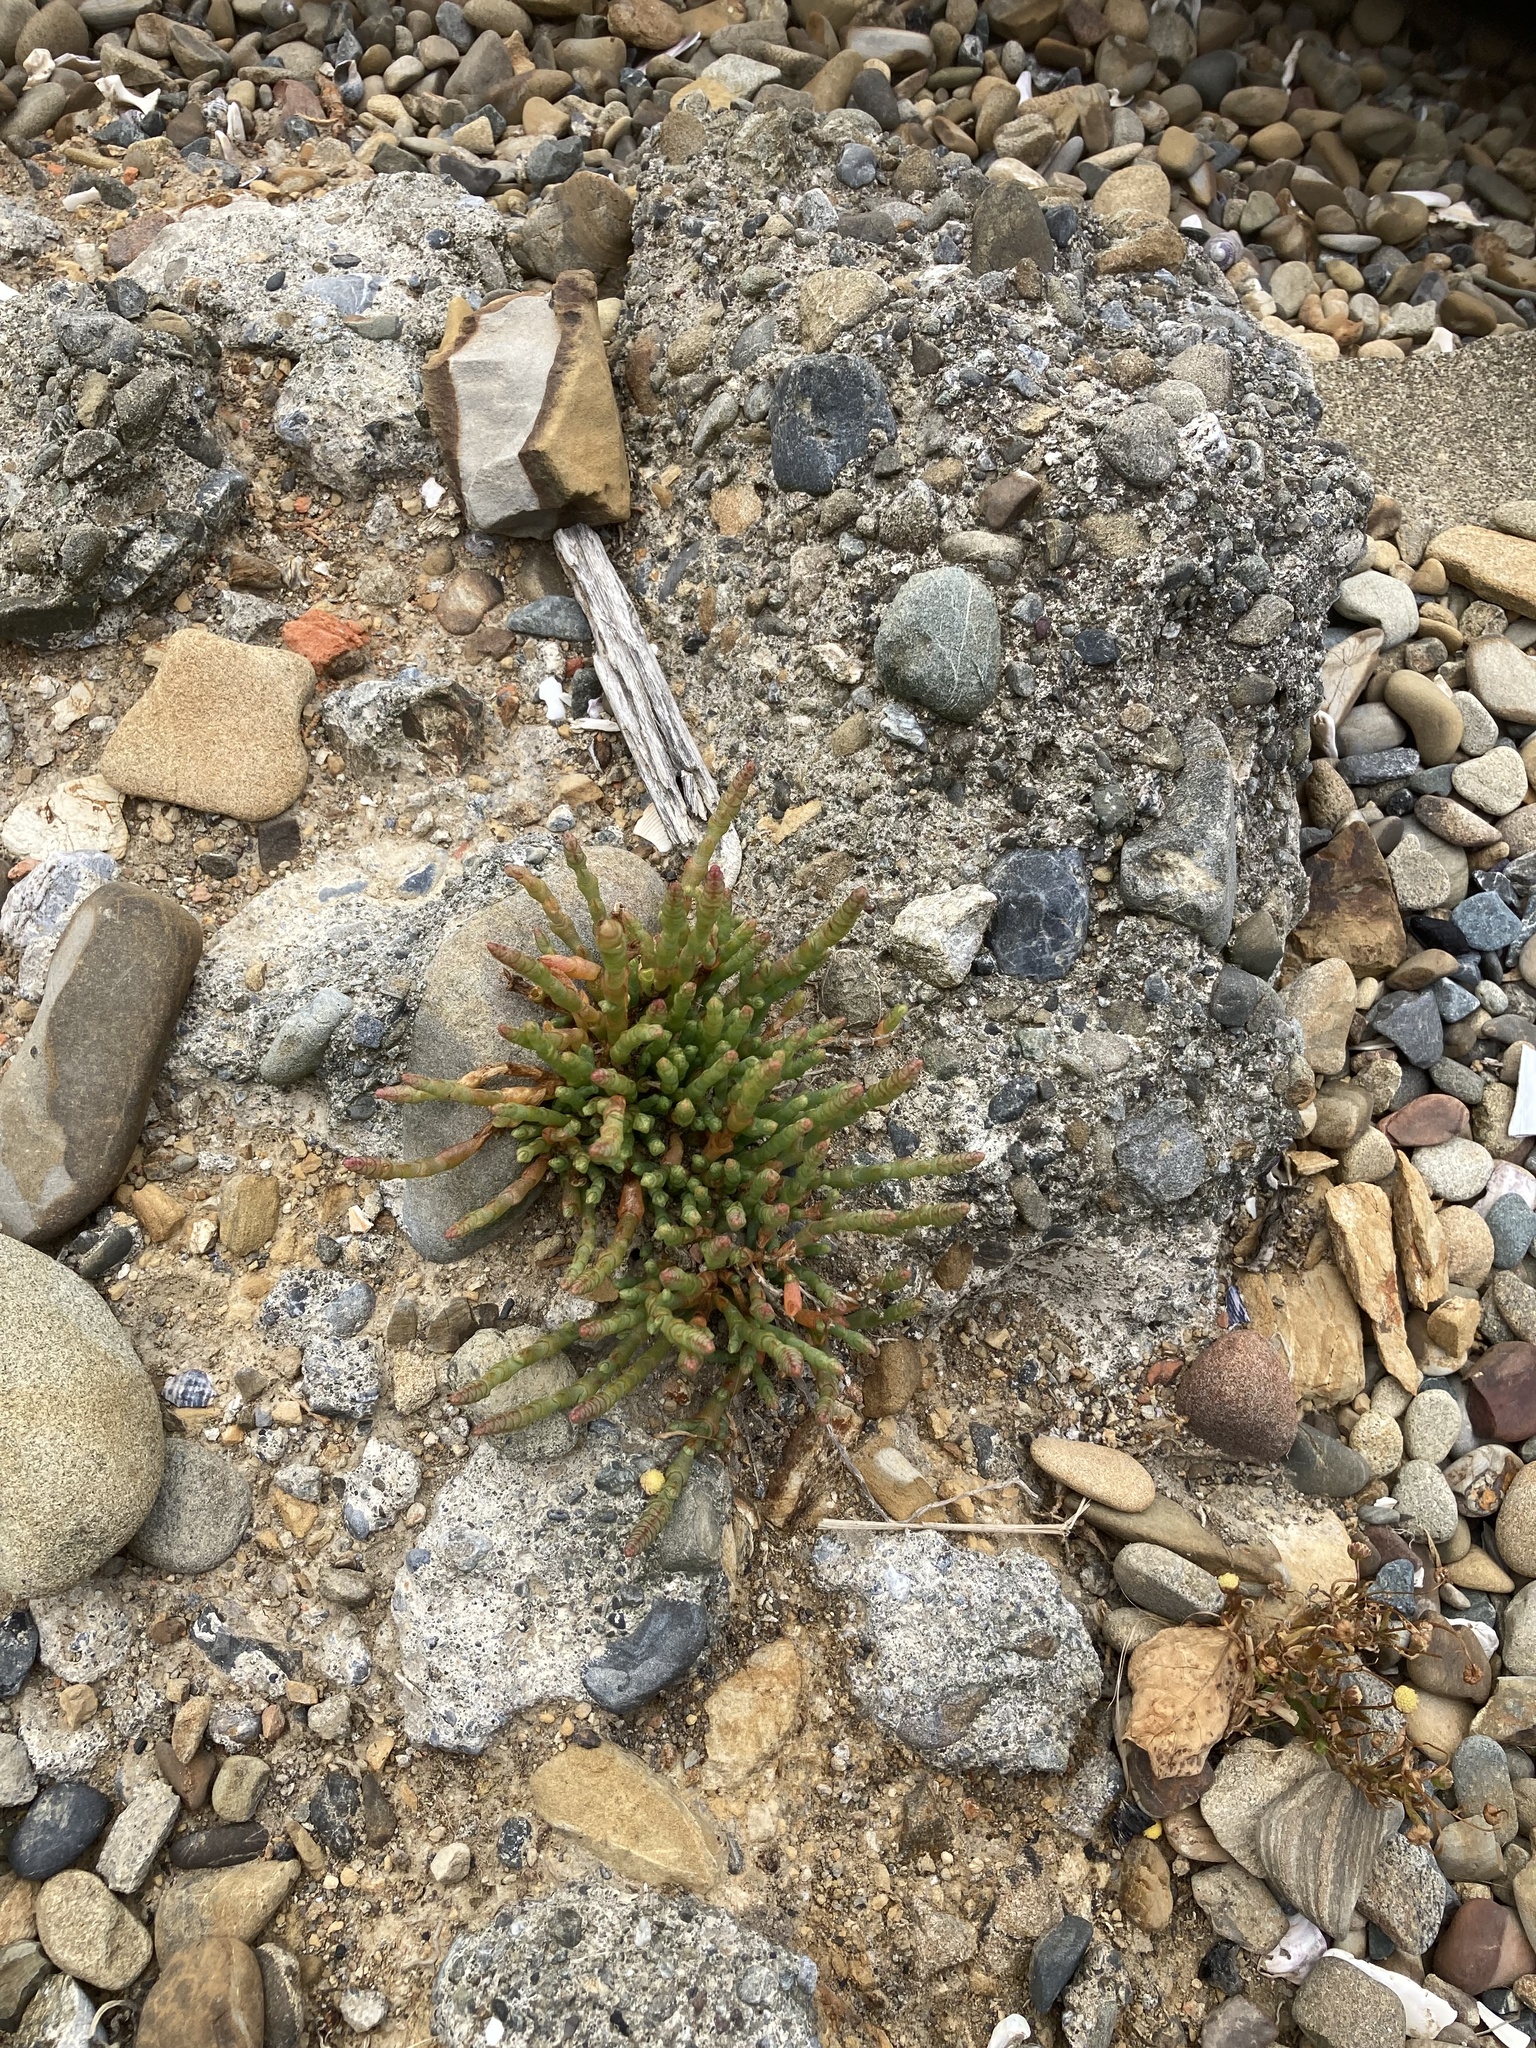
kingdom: Plantae
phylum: Tracheophyta
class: Magnoliopsida
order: Caryophyllales
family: Amaranthaceae
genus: Salicornia
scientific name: Salicornia quinqueflora
